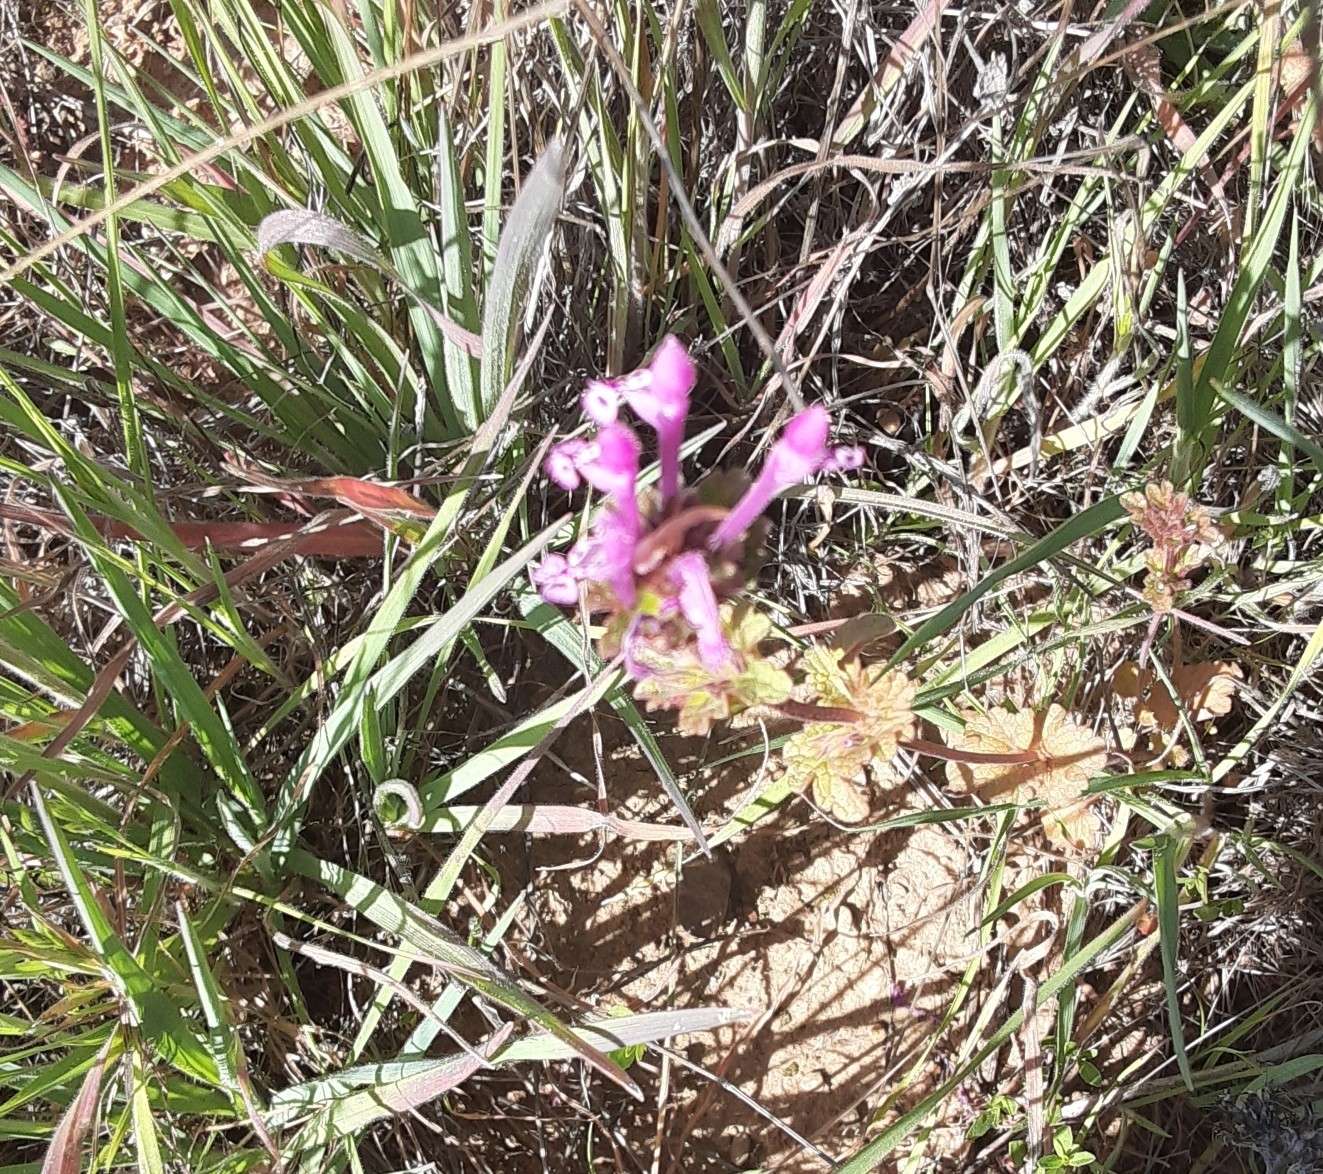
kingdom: Plantae
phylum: Tracheophyta
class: Magnoliopsida
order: Lamiales
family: Lamiaceae
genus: Lamium
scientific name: Lamium amplexicaule
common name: Henbit dead-nettle
